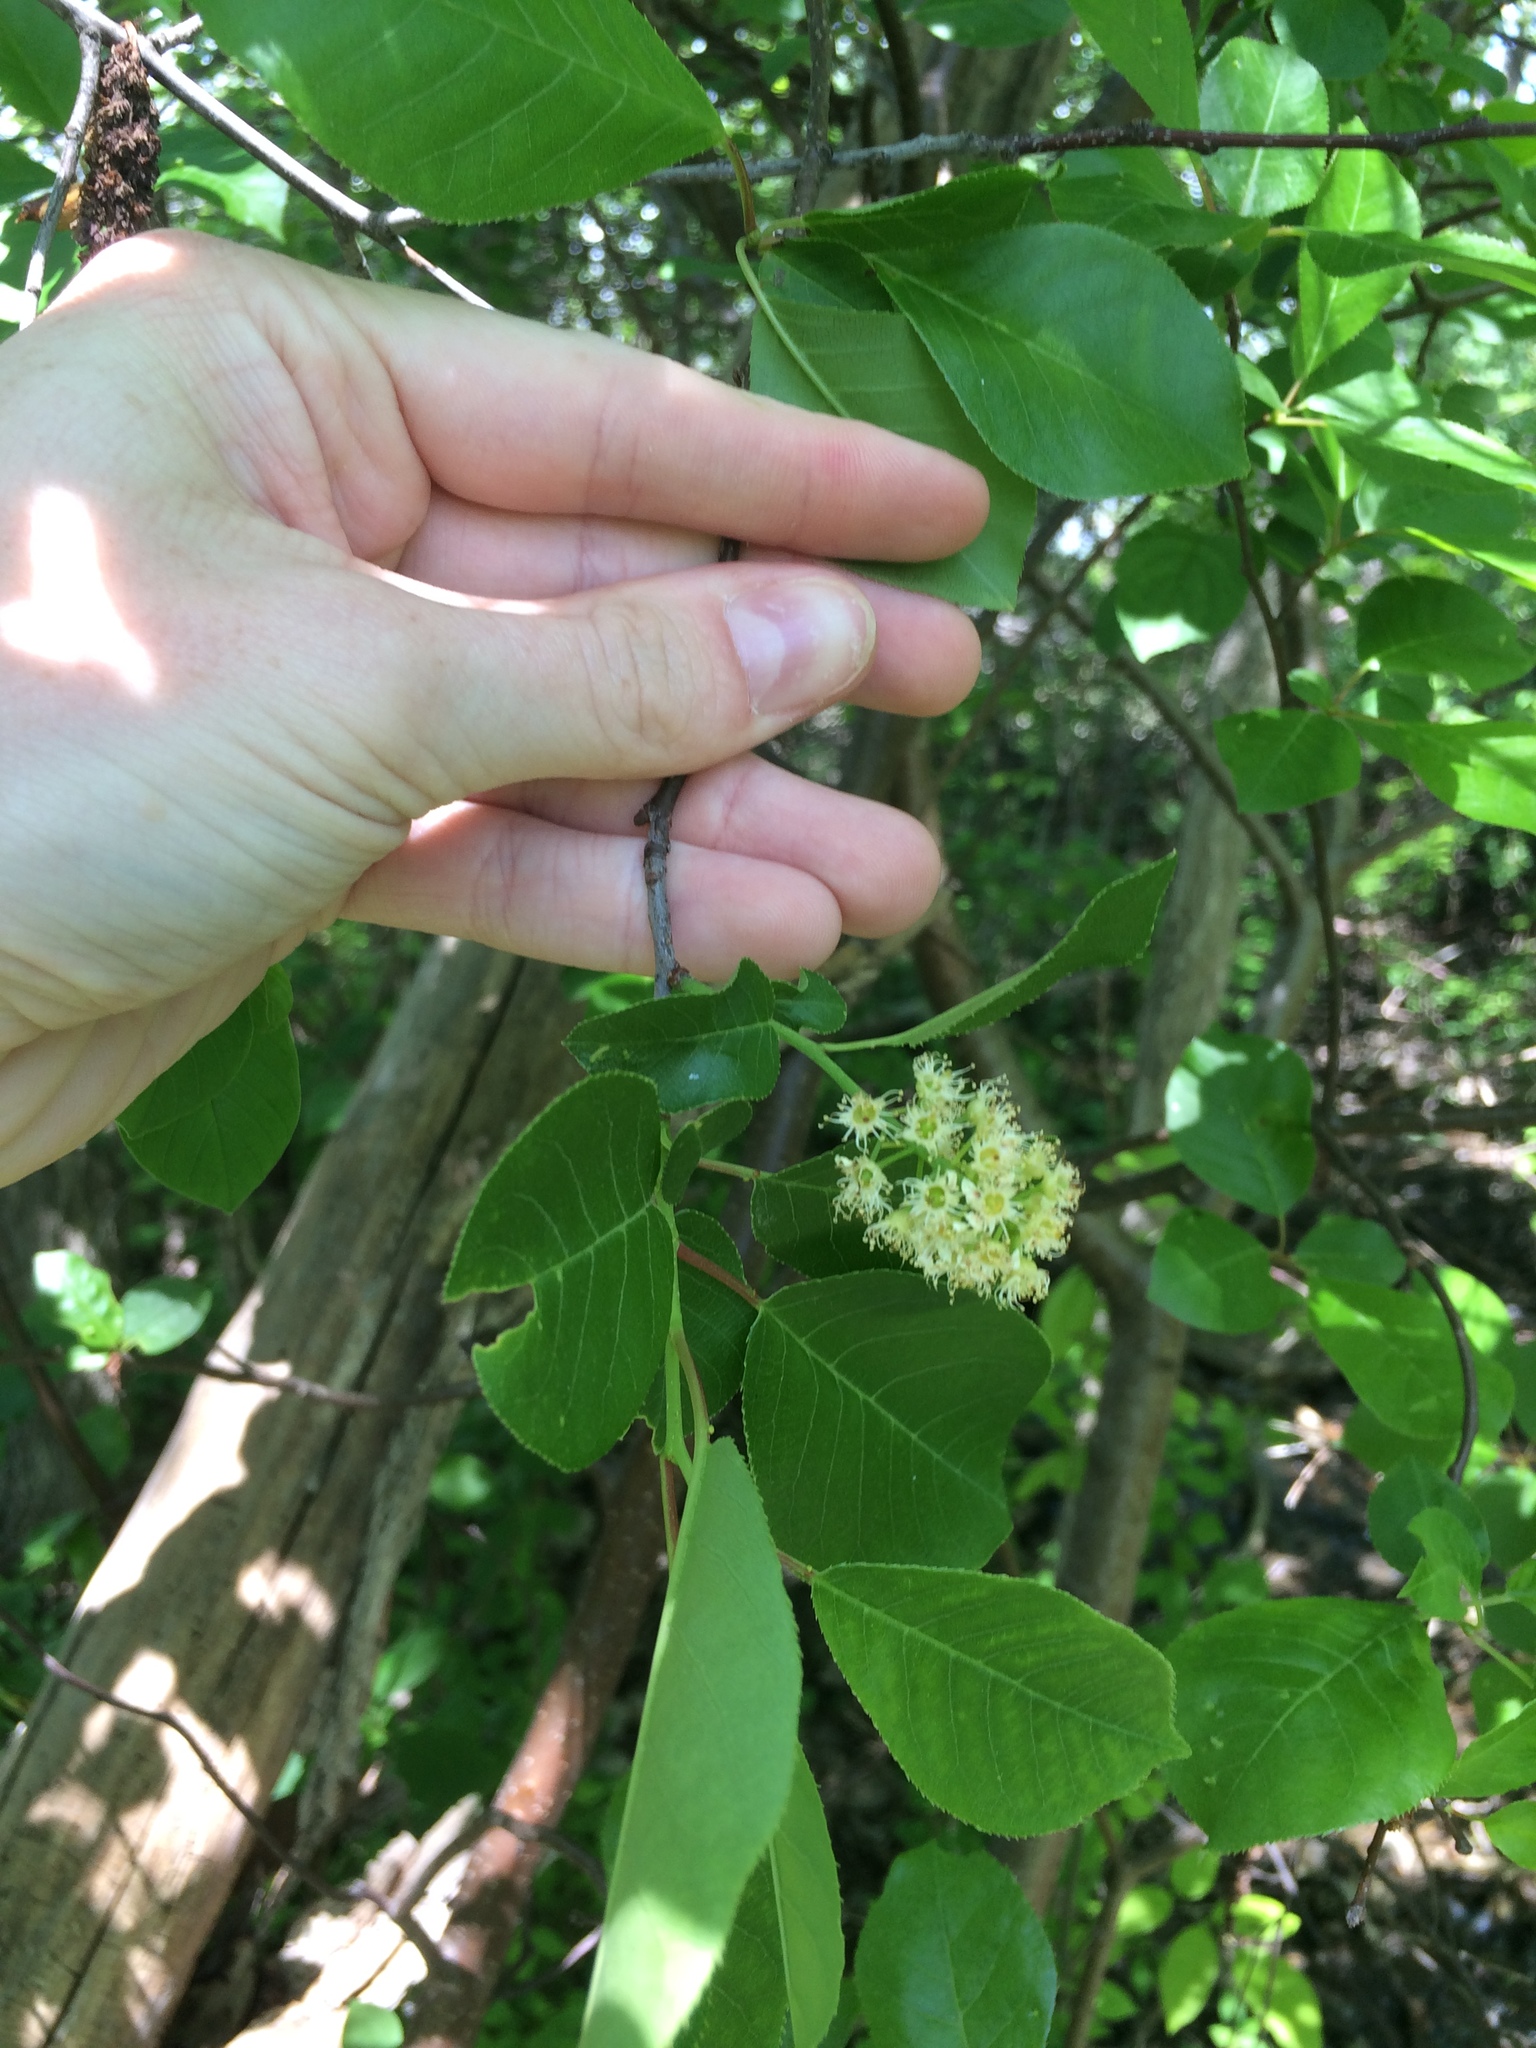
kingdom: Plantae
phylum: Tracheophyta
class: Magnoliopsida
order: Rosales
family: Rosaceae
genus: Prunus
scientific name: Prunus virginiana
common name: Chokecherry
